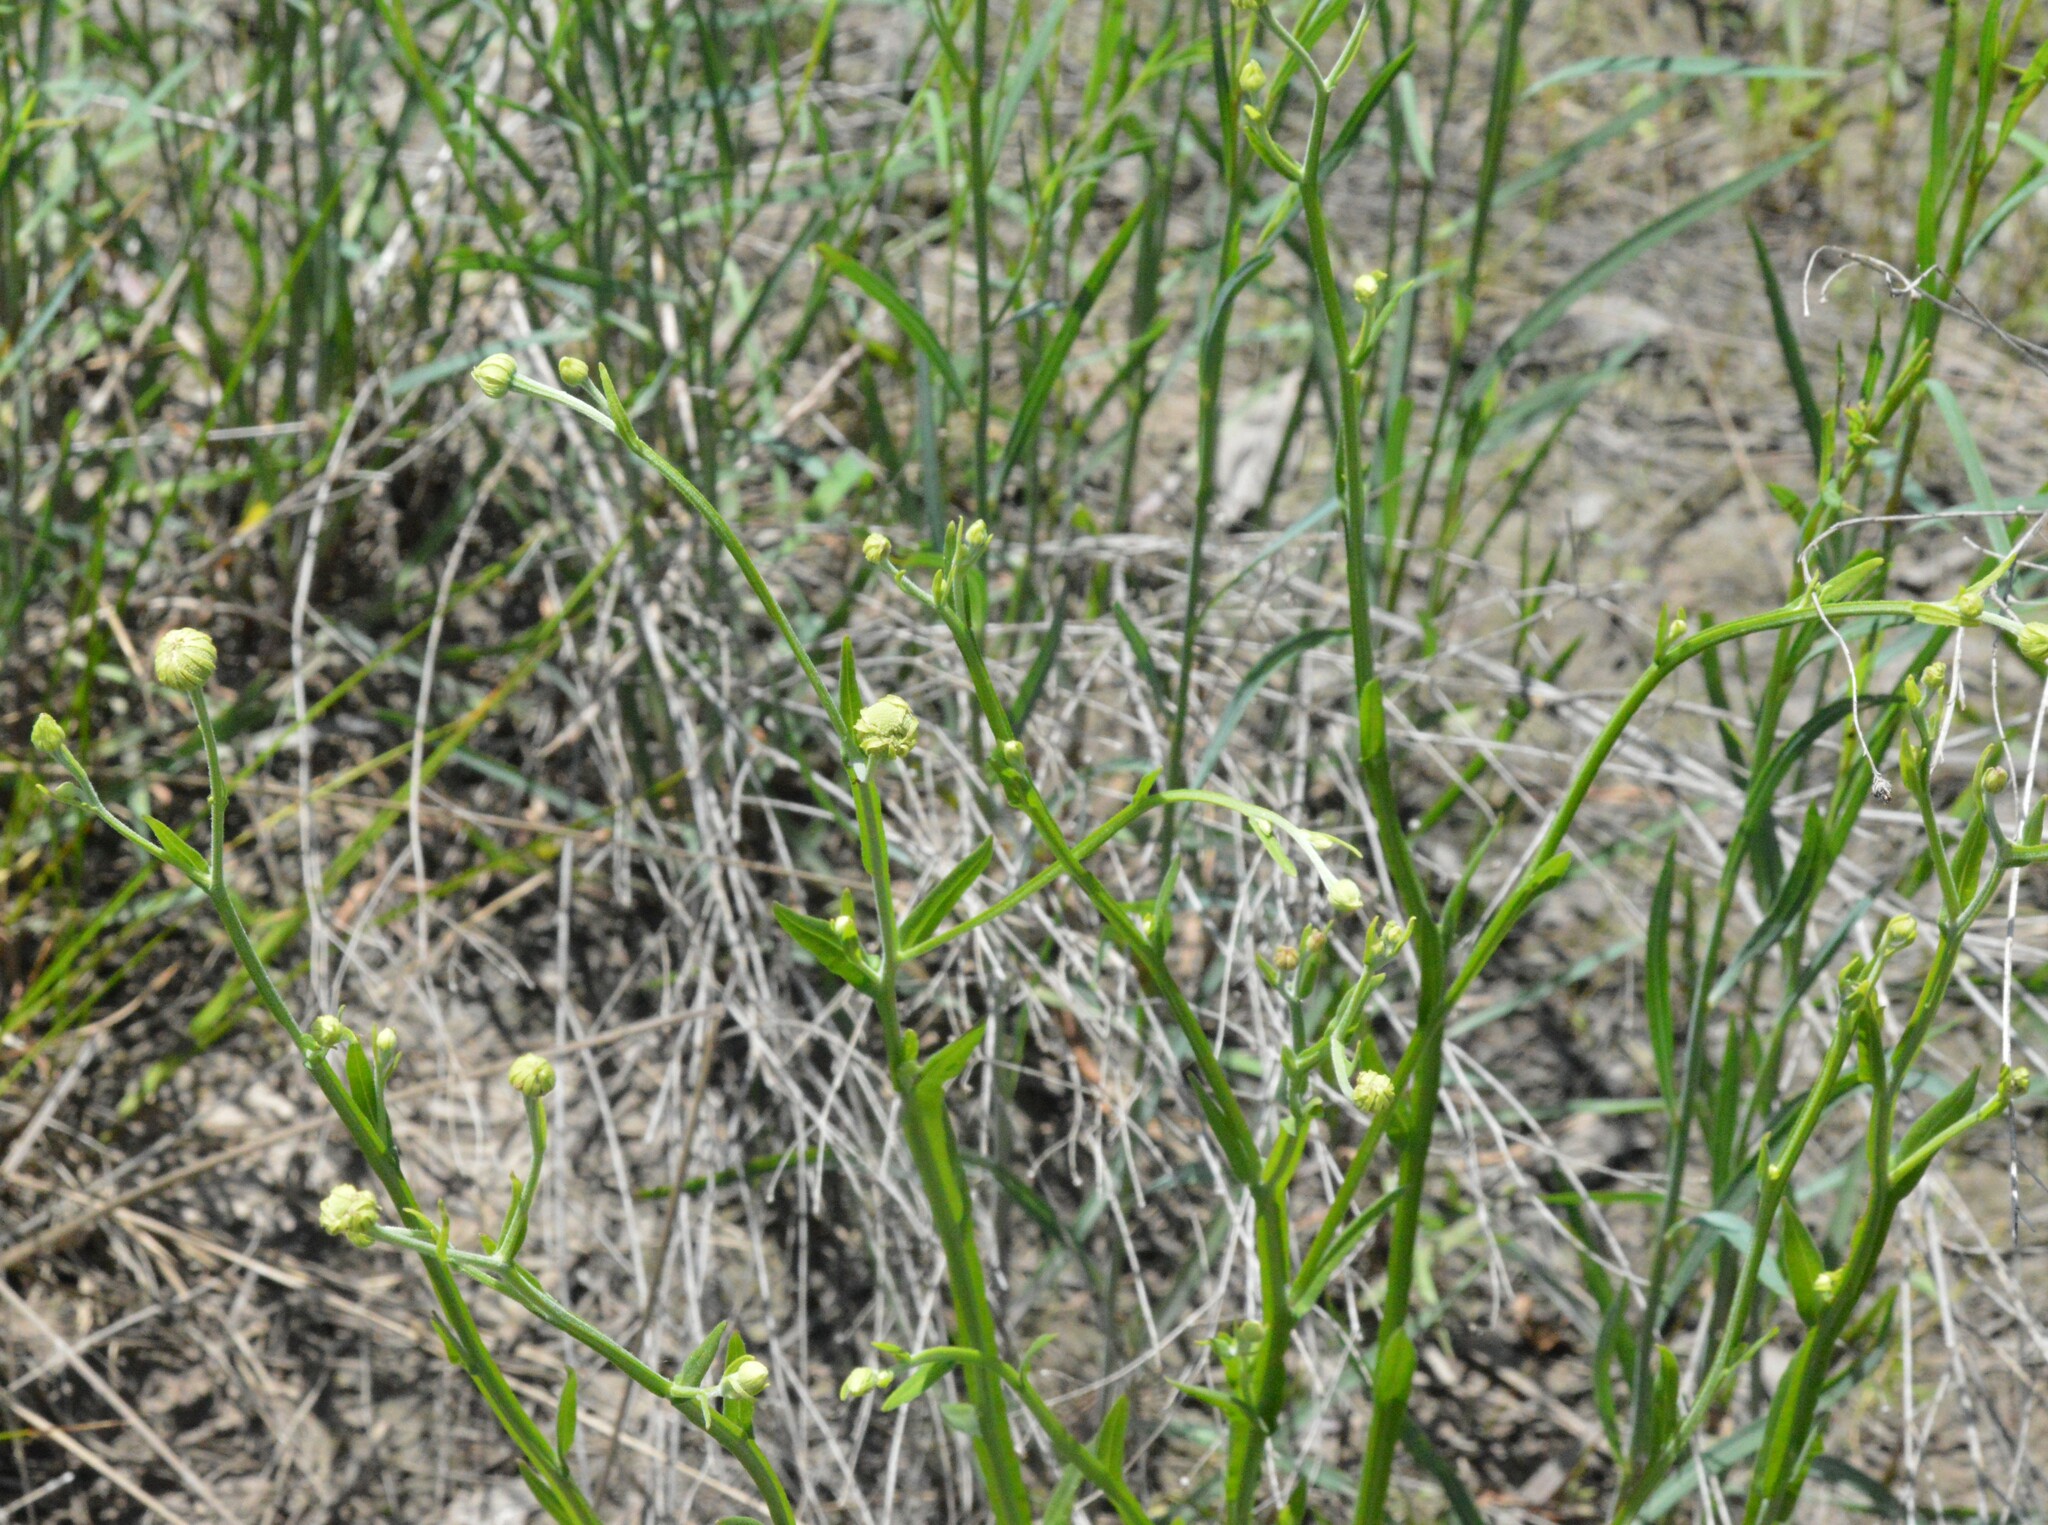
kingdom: Plantae
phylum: Tracheophyta
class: Magnoliopsida
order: Asterales
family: Asteraceae
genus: Helenium
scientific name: Helenium flexuosum
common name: Naked-flowered sneezeweed
